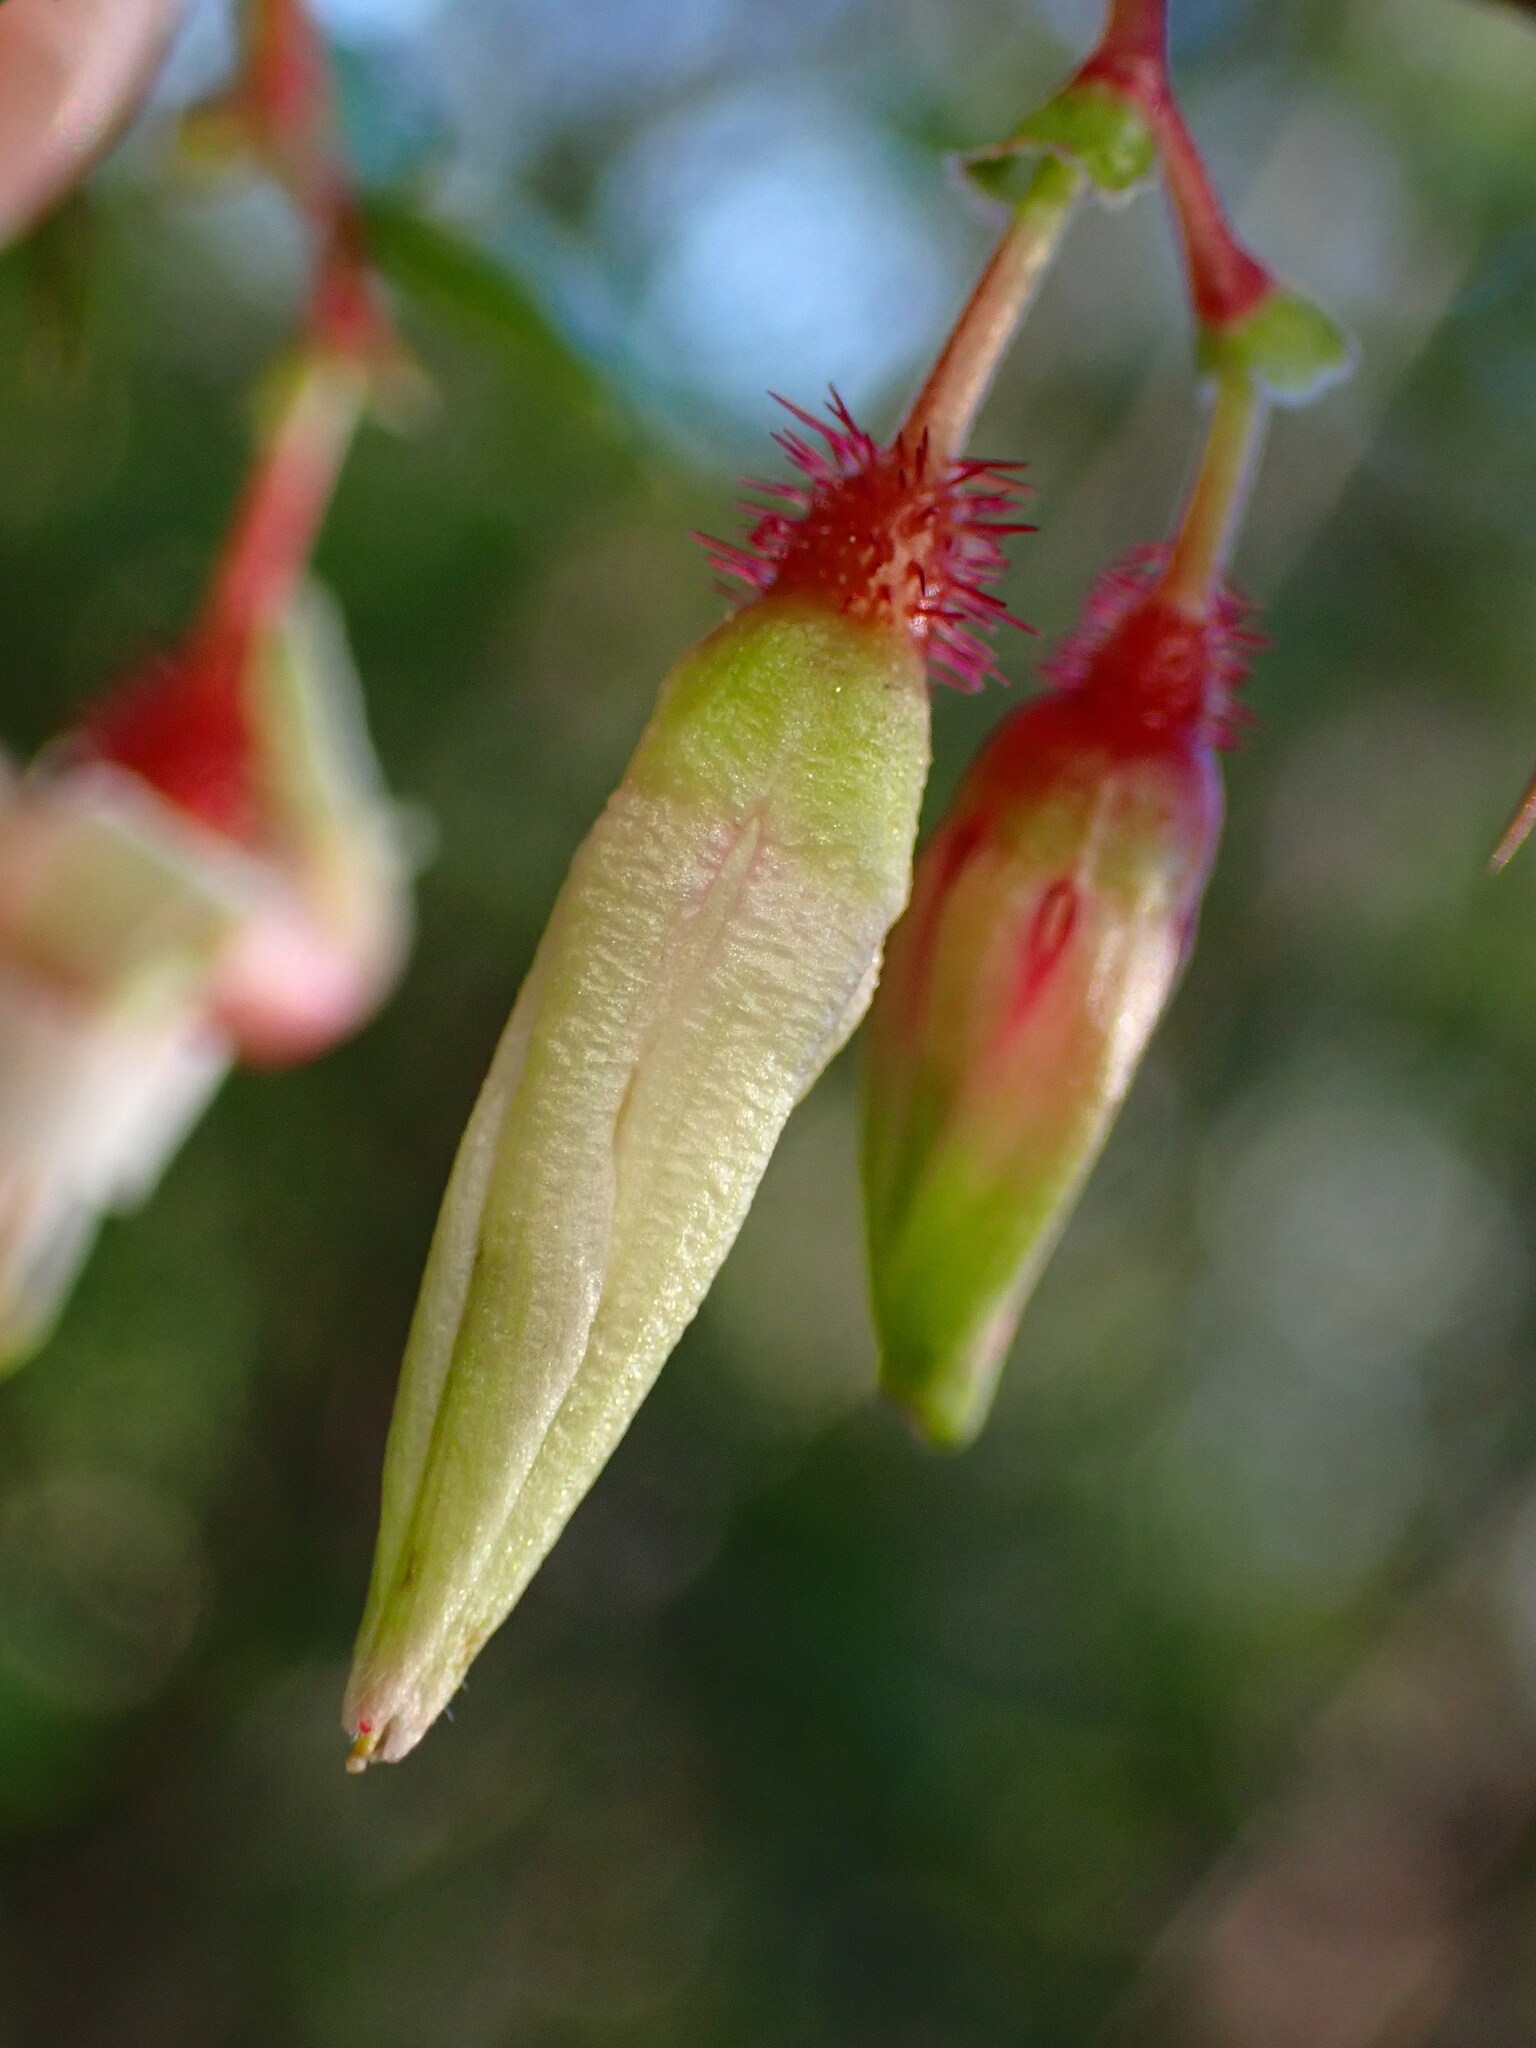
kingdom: Plantae
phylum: Tracheophyta
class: Magnoliopsida
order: Saxifragales
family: Grossulariaceae
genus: Ribes
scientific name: Ribes californicum
